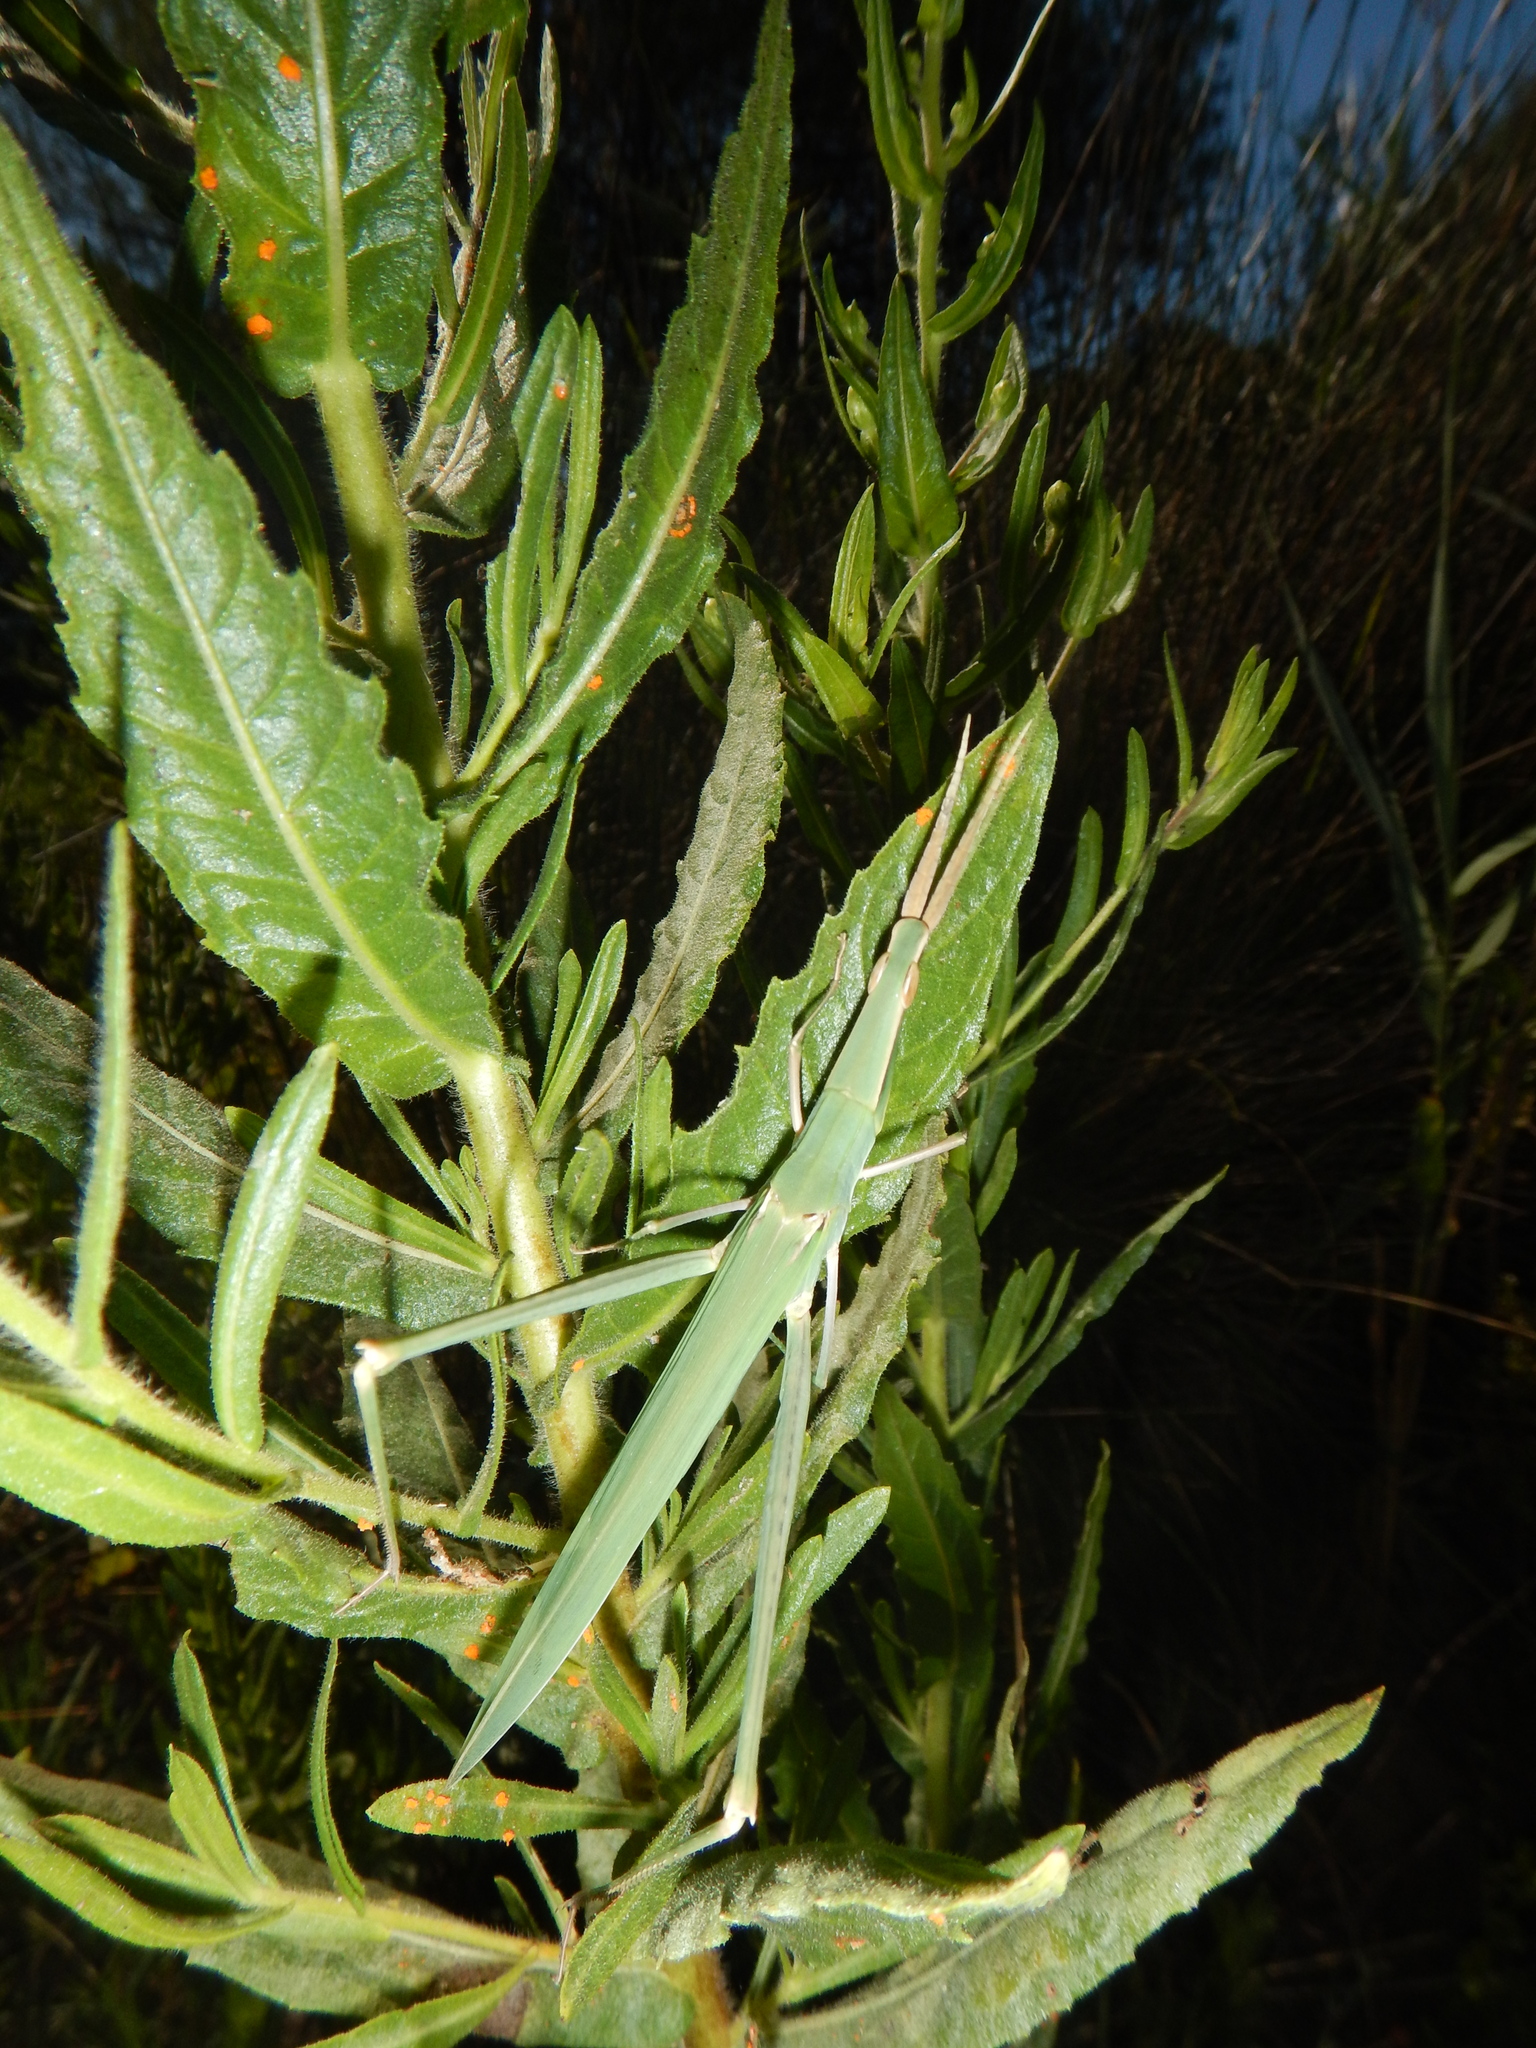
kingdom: Animalia
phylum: Arthropoda
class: Insecta
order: Orthoptera
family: Acrididae
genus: Acrida
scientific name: Acrida ungarica
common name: Common cone-headed grasshopper
